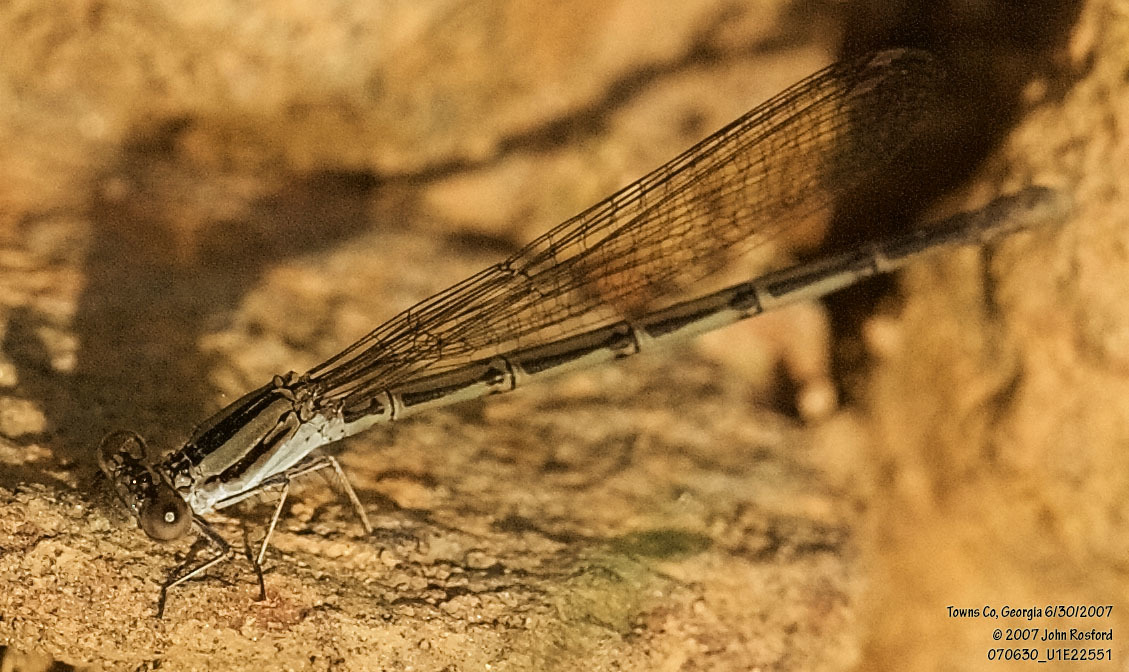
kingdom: Animalia
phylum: Arthropoda
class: Insecta
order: Odonata
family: Coenagrionidae
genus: Argia
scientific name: Argia fumipennis
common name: Variable dancer
